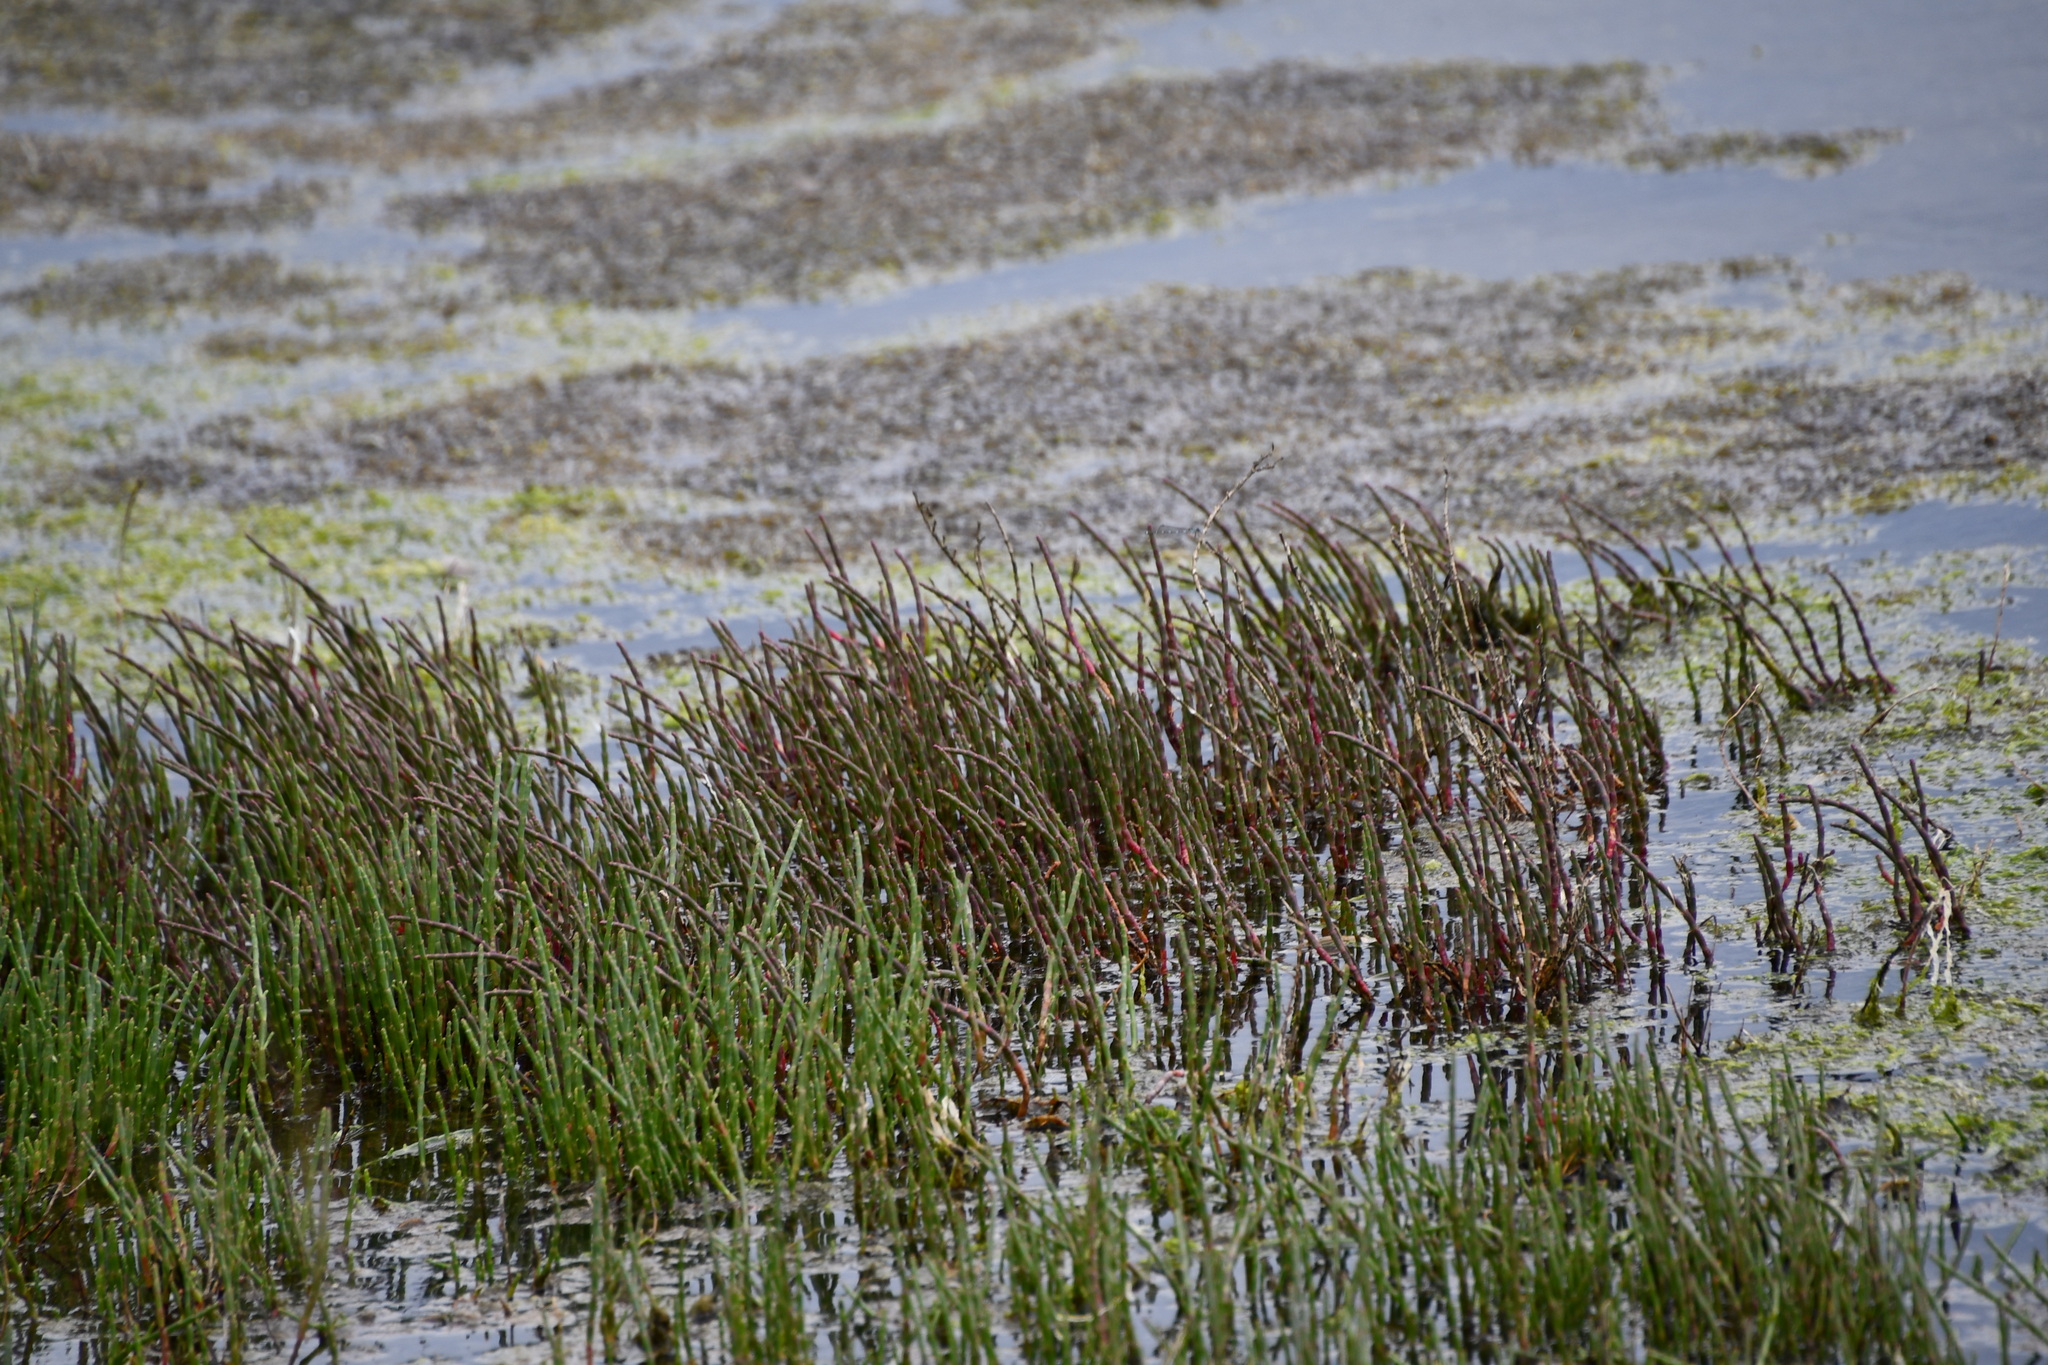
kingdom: Plantae
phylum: Tracheophyta
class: Magnoliopsida
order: Caryophyllales
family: Amaranthaceae
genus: Salicornia
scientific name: Salicornia quinqueflora
